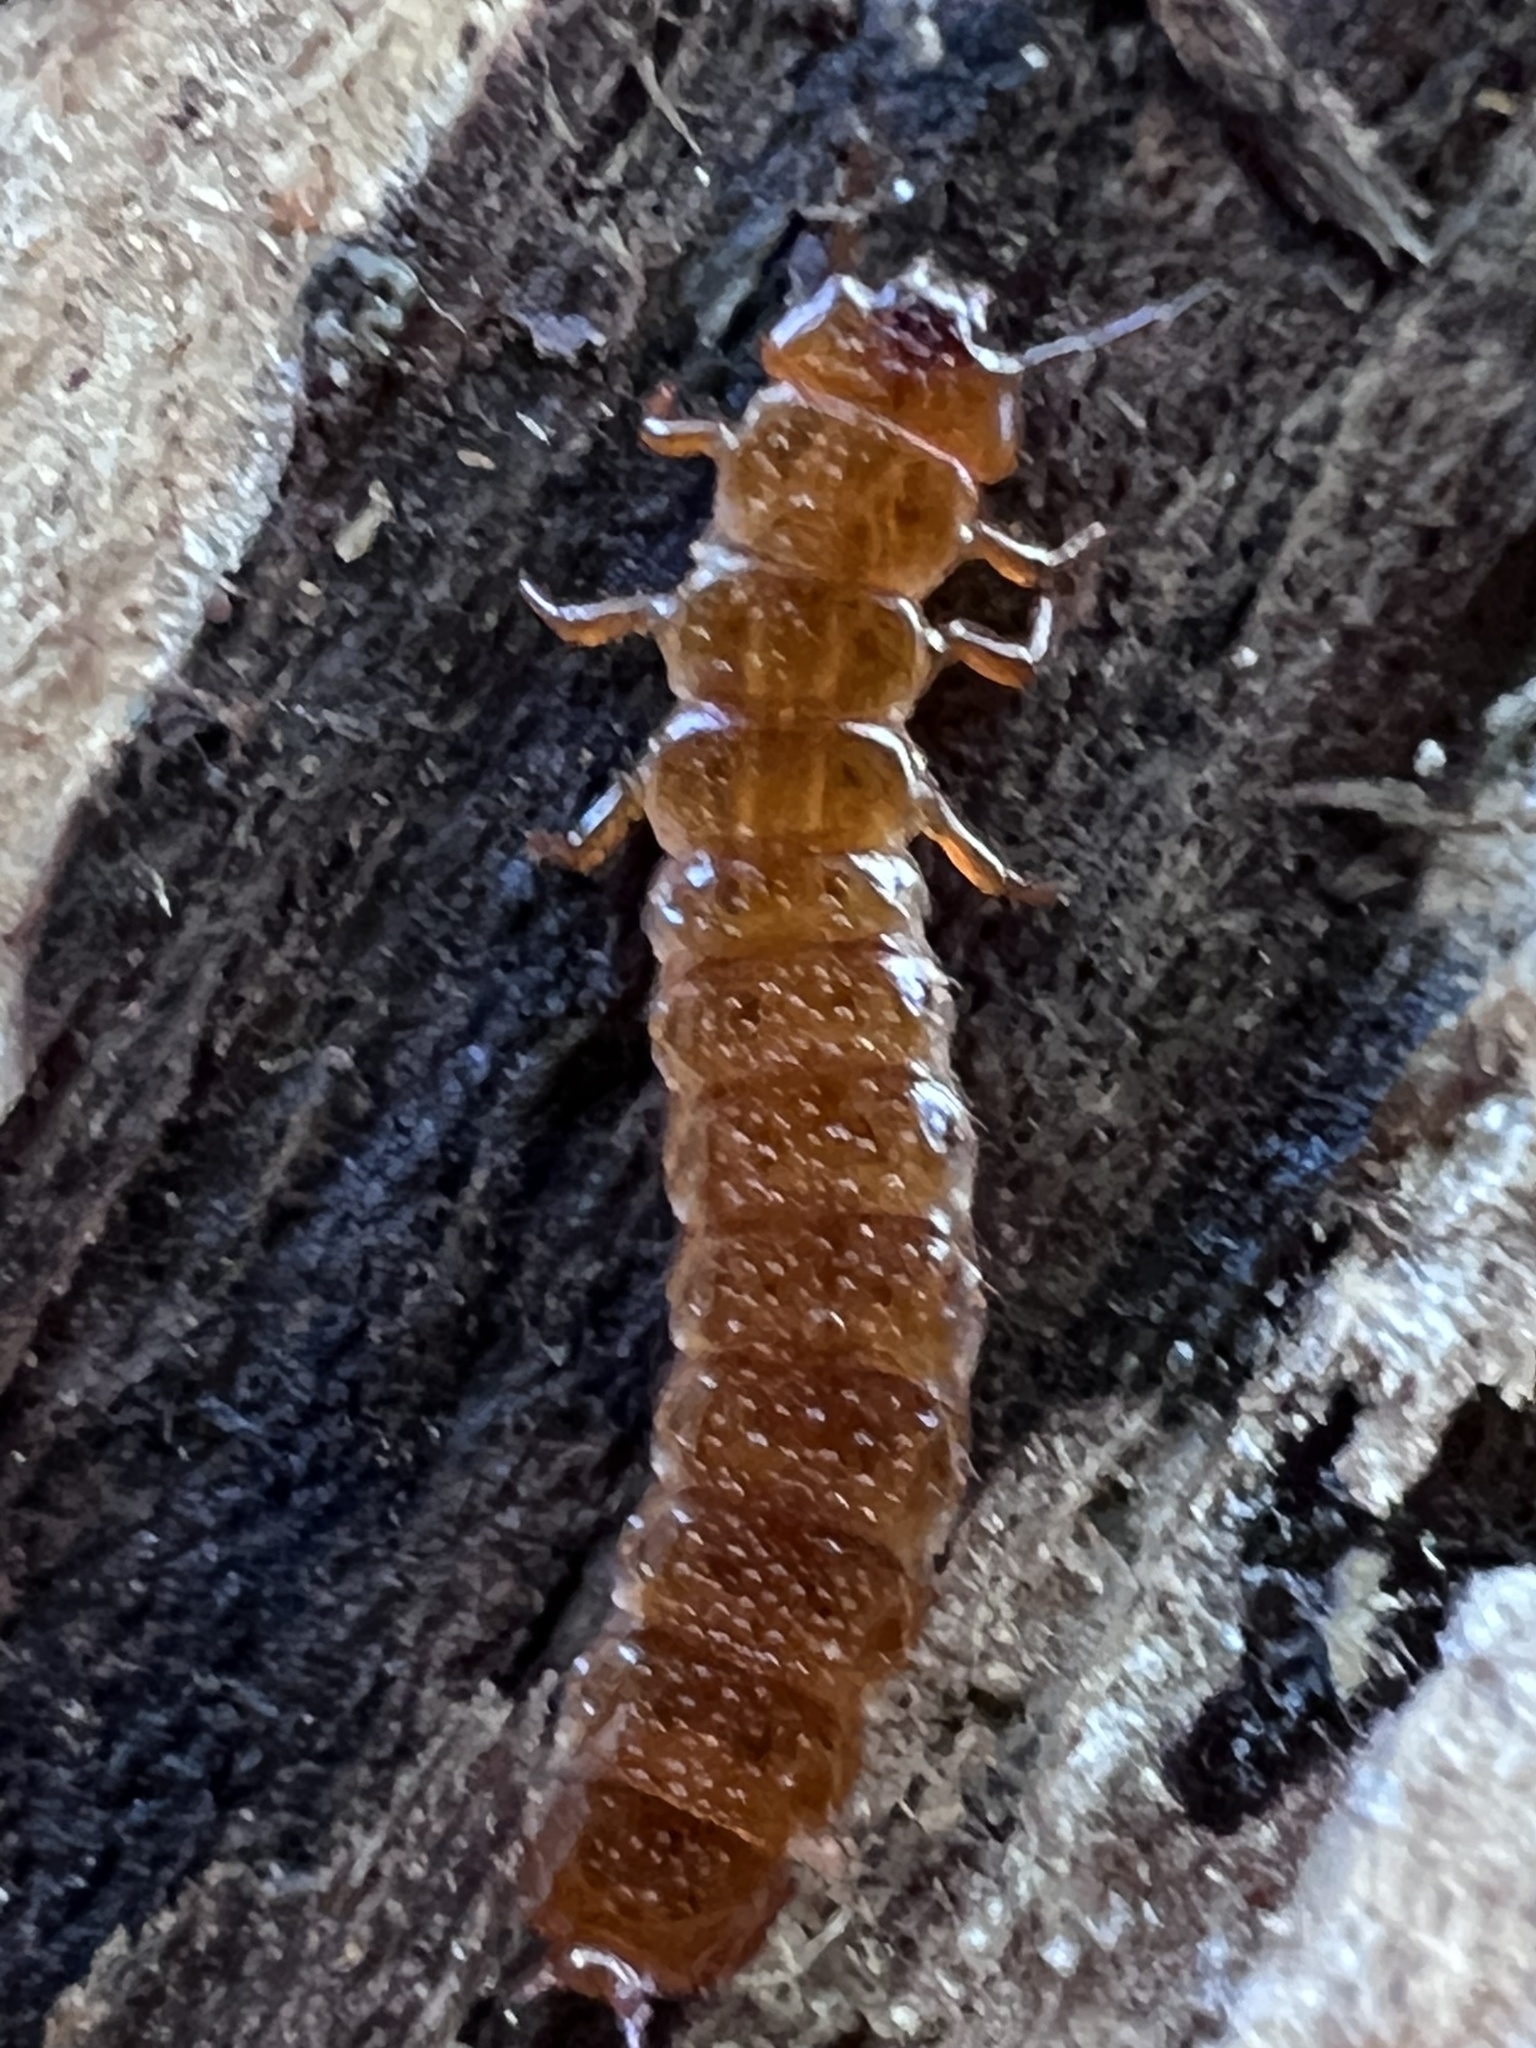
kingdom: Animalia
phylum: Arthropoda
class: Insecta
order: Coleoptera
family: Cucujidae
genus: Cucujus
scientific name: Cucujus clavipes
